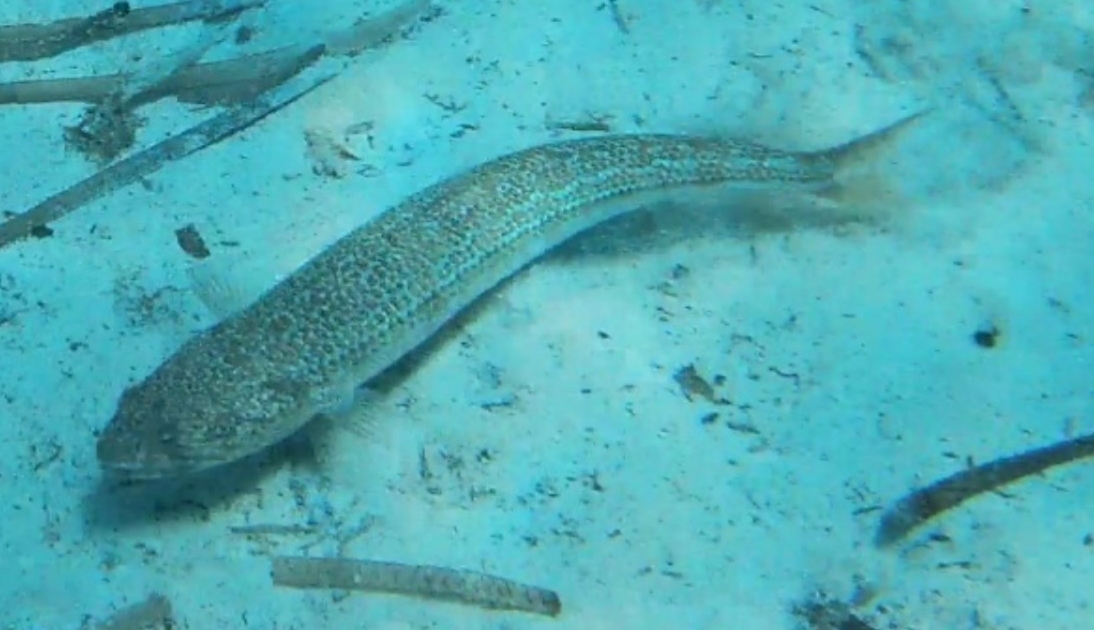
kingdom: Animalia
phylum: Chordata
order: Aulopiformes
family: Synodontidae
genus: Synodus
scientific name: Synodus saurus
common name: Atlantic lizardfish
